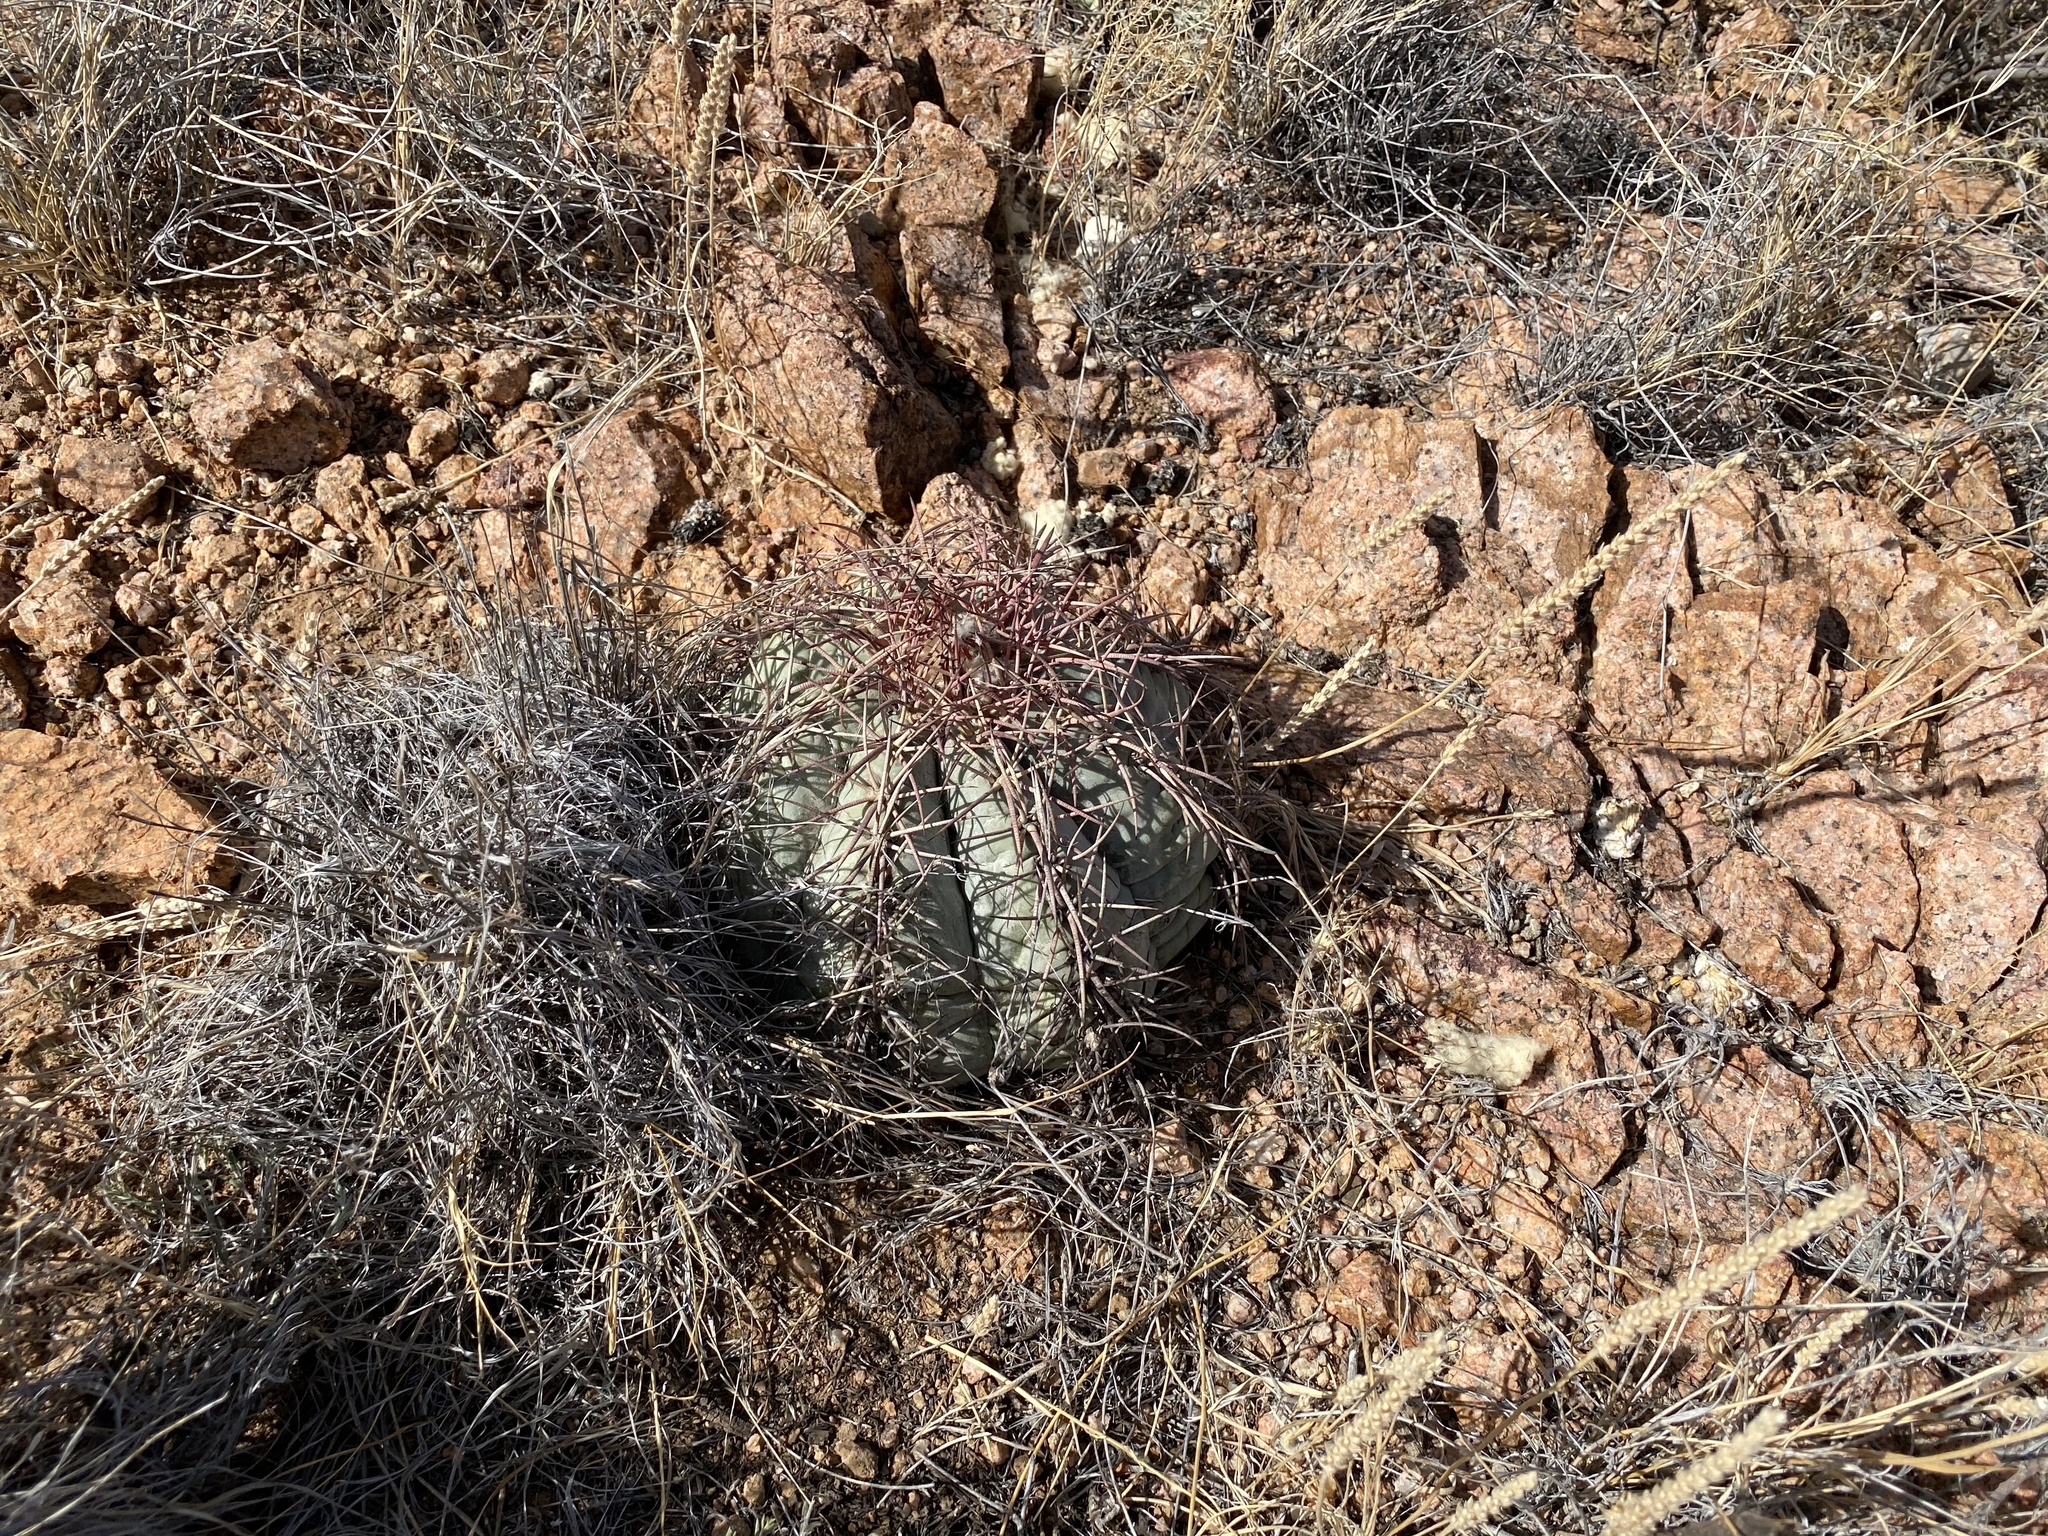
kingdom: Plantae
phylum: Tracheophyta
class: Magnoliopsida
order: Caryophyllales
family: Cactaceae
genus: Echinocactus
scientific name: Echinocactus horizonthalonius
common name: Devilshead
